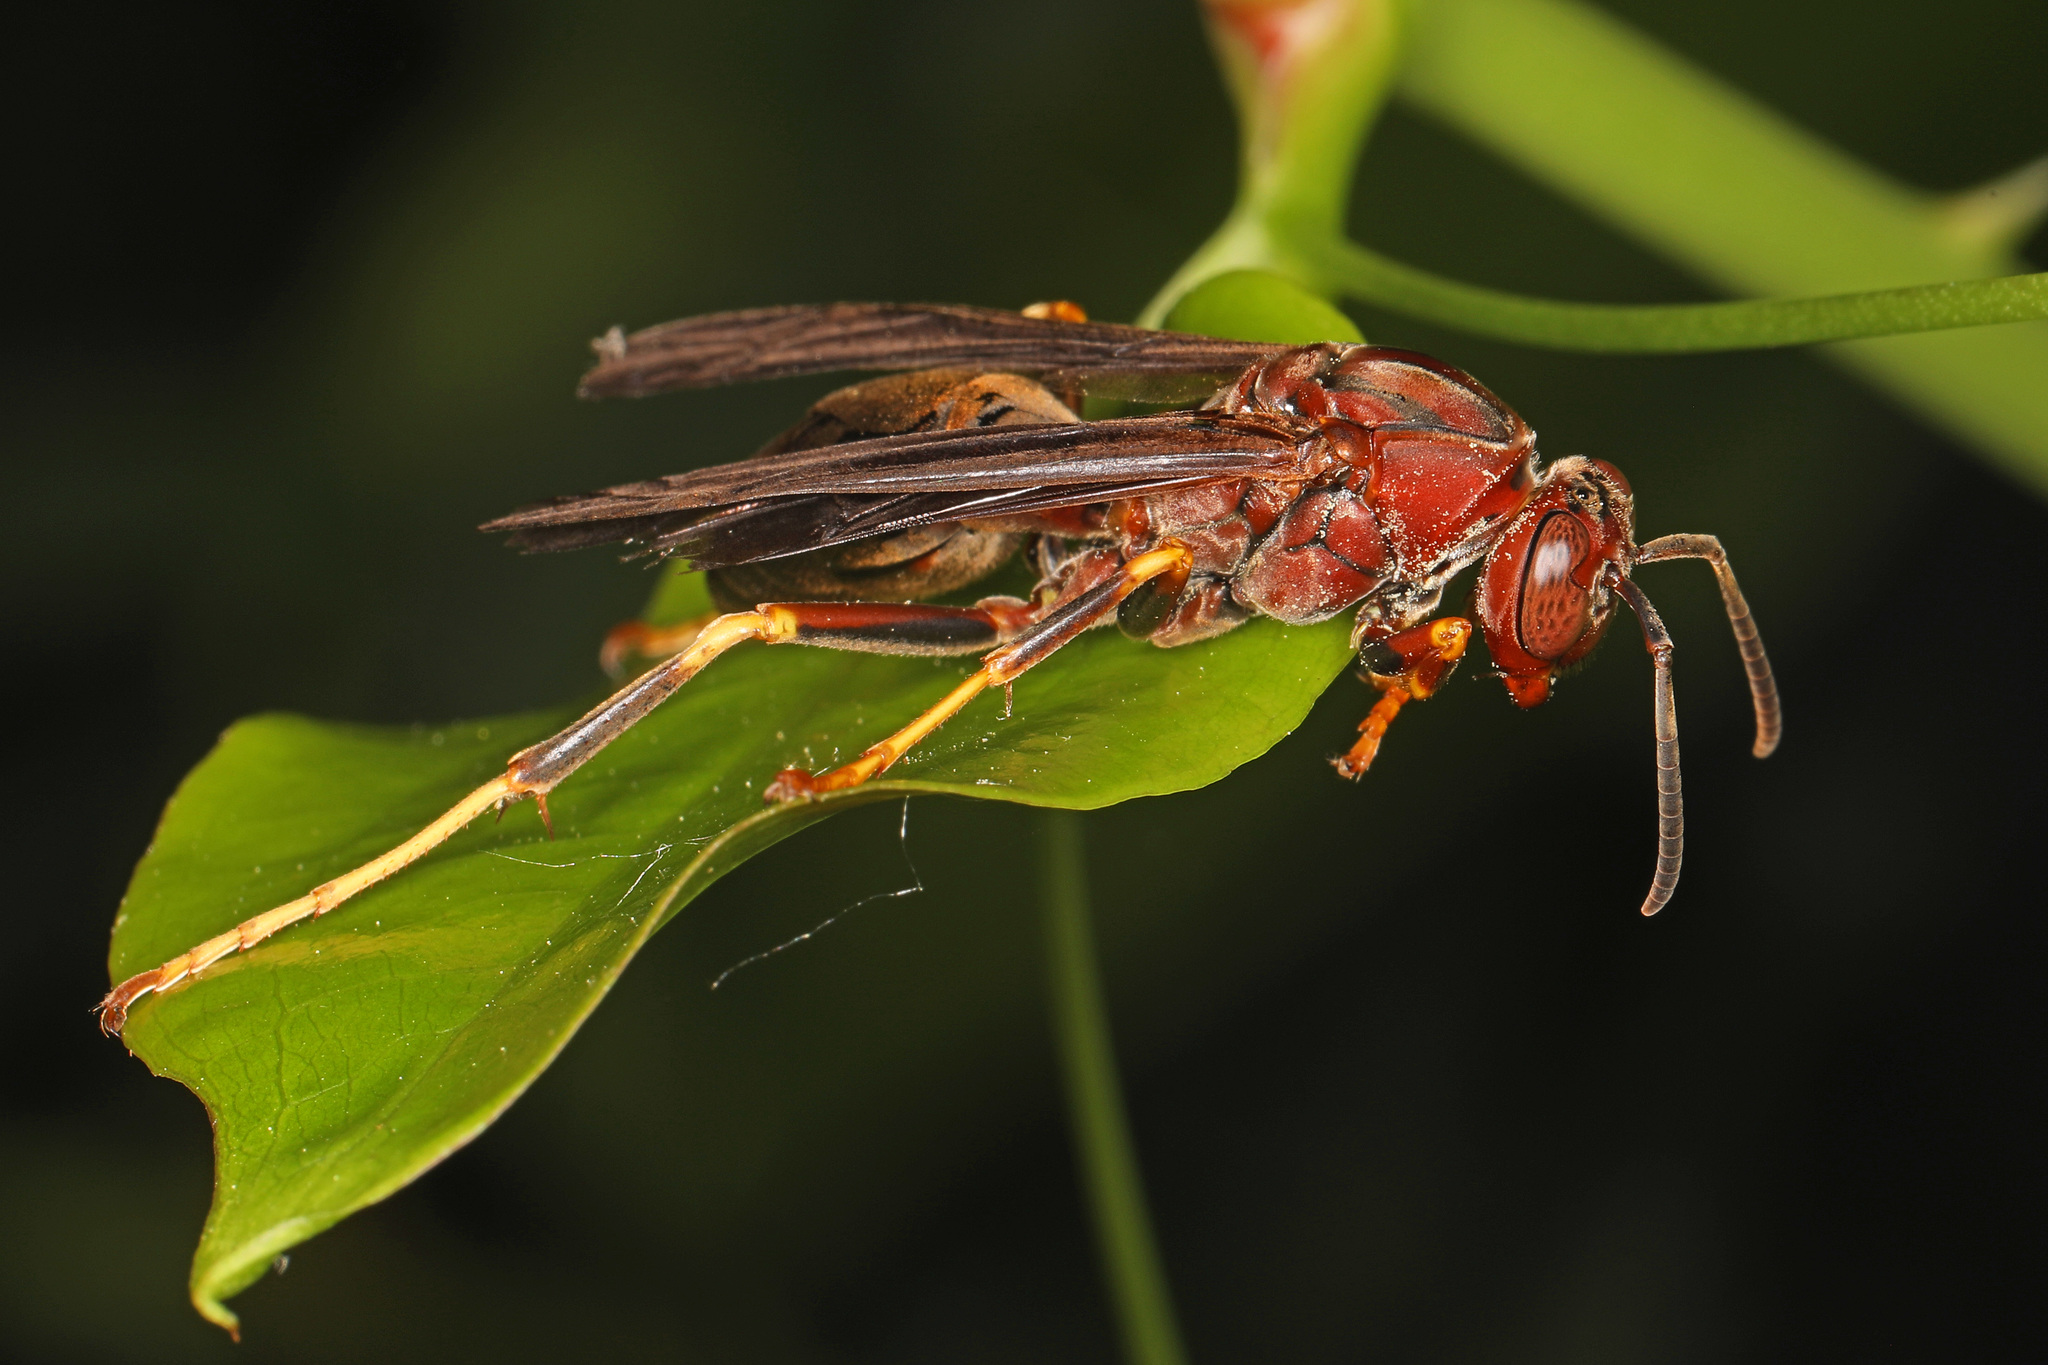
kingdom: Animalia
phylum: Arthropoda
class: Insecta
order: Hymenoptera
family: Eumenidae
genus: Polistes
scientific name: Polistes metricus
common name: Metric paper wasp
